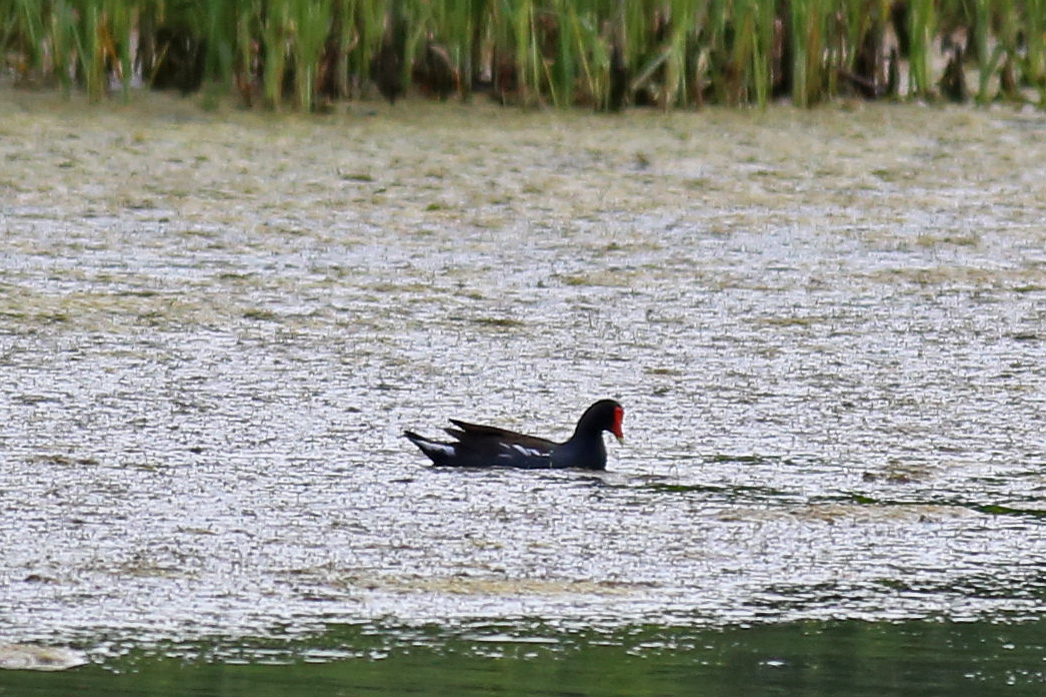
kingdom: Animalia
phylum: Chordata
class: Aves
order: Gruiformes
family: Rallidae
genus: Gallinula
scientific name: Gallinula chloropus
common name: Common moorhen
